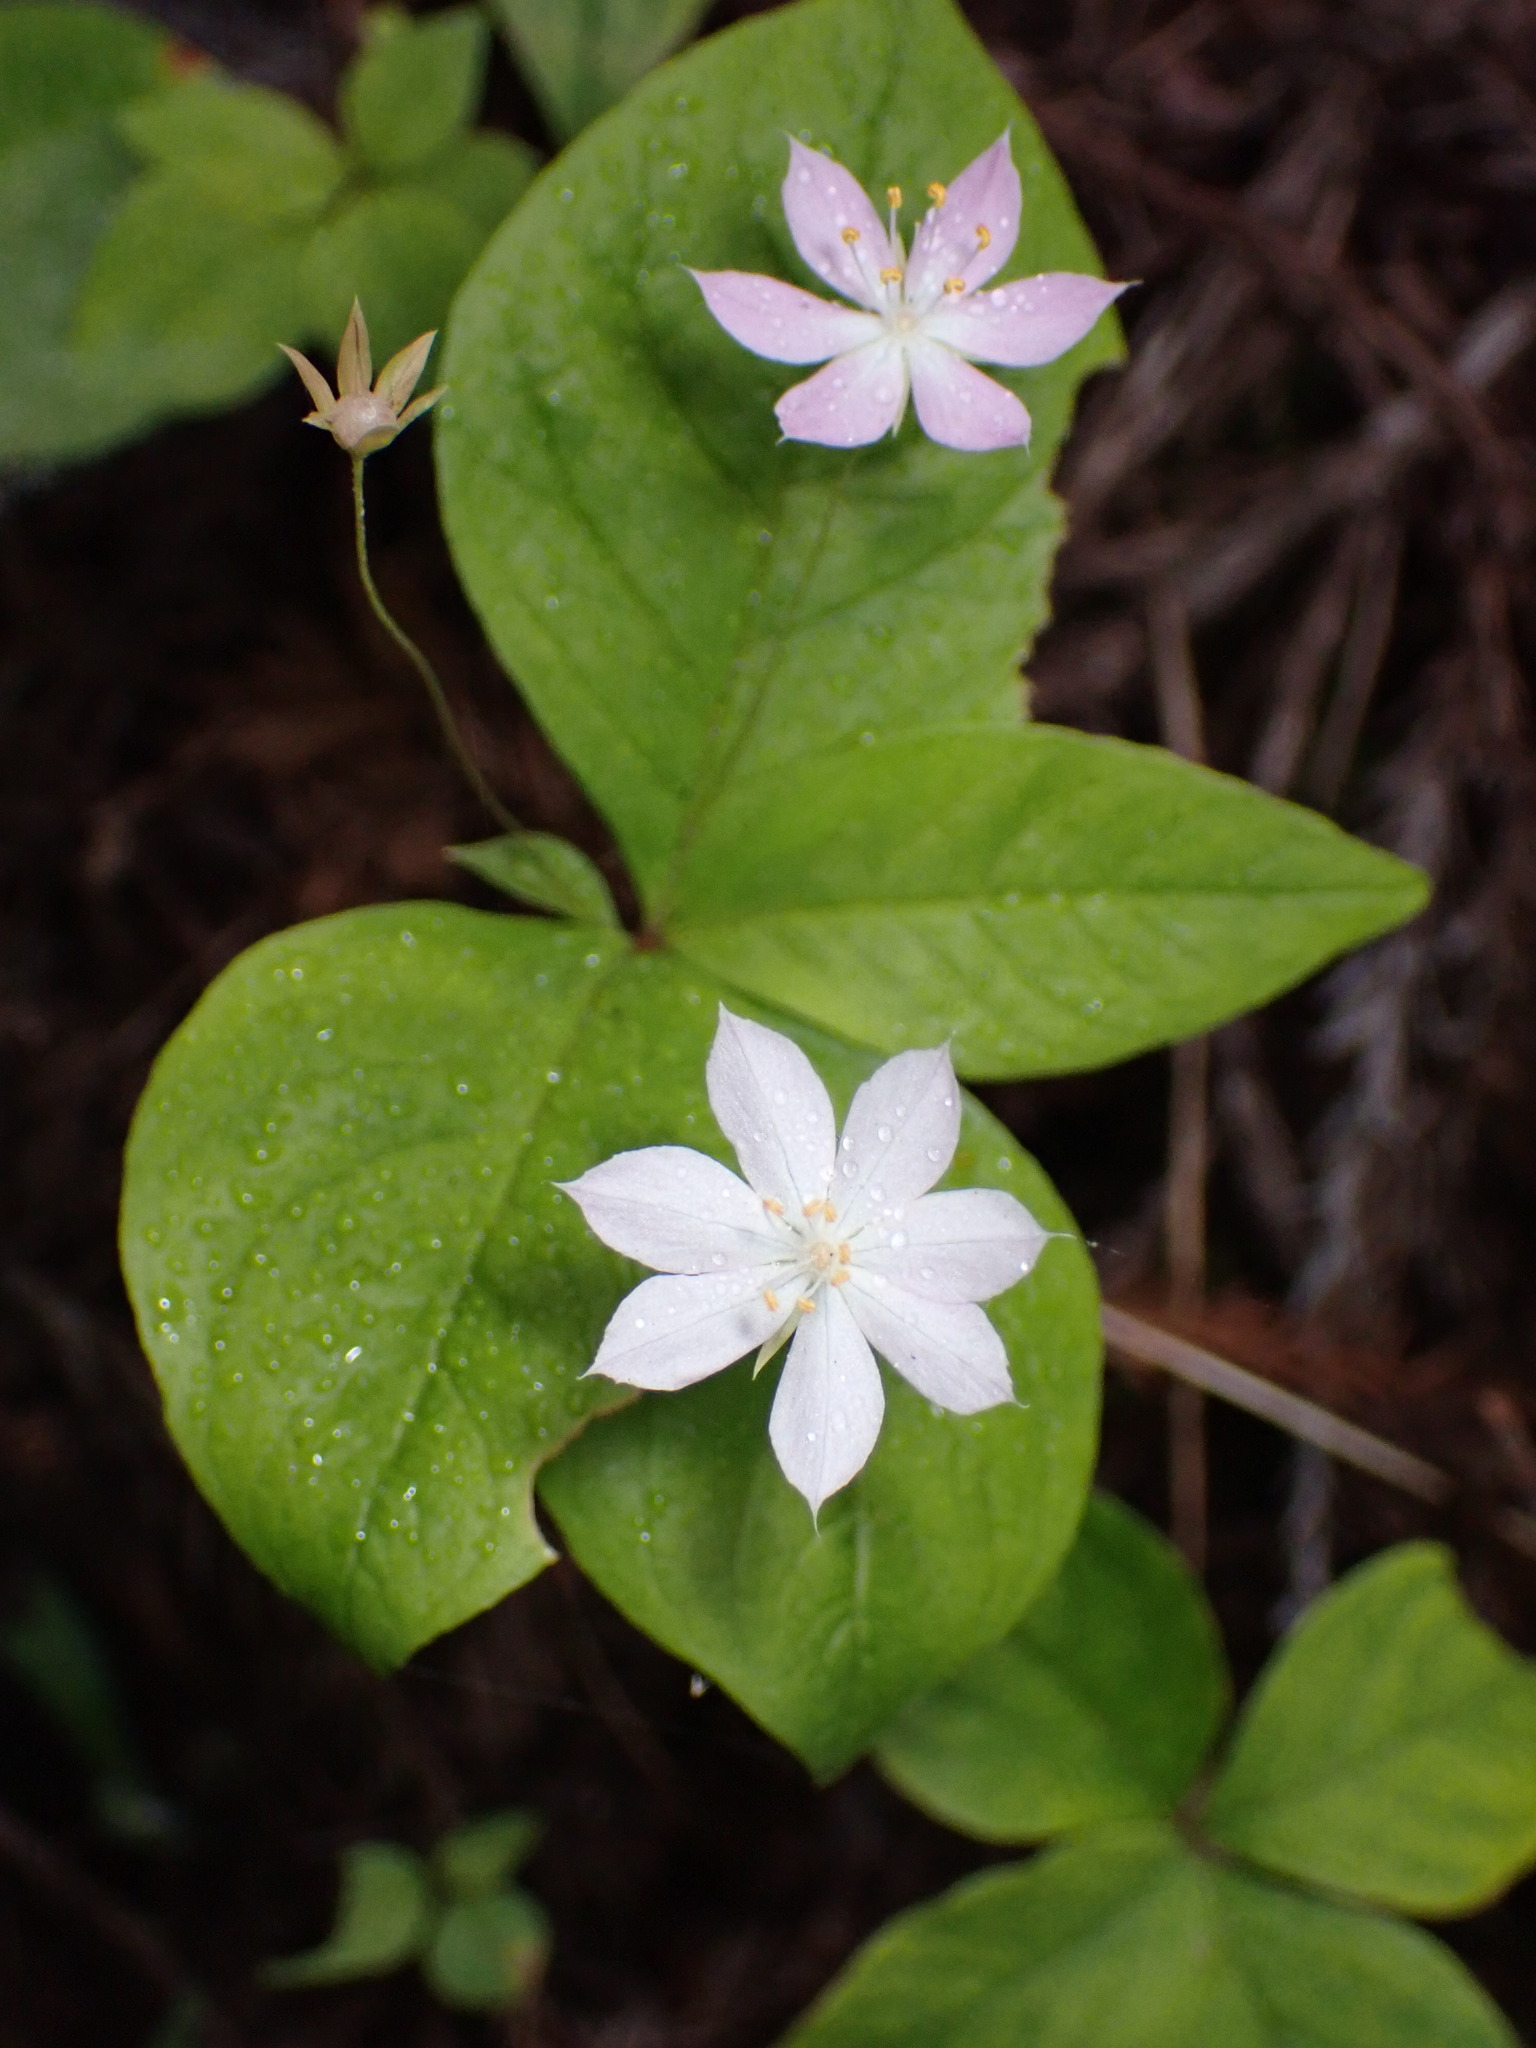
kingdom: Plantae
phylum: Tracheophyta
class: Magnoliopsida
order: Ericales
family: Primulaceae
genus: Lysimachia
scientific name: Lysimachia latifolia
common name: Pacific starflower
